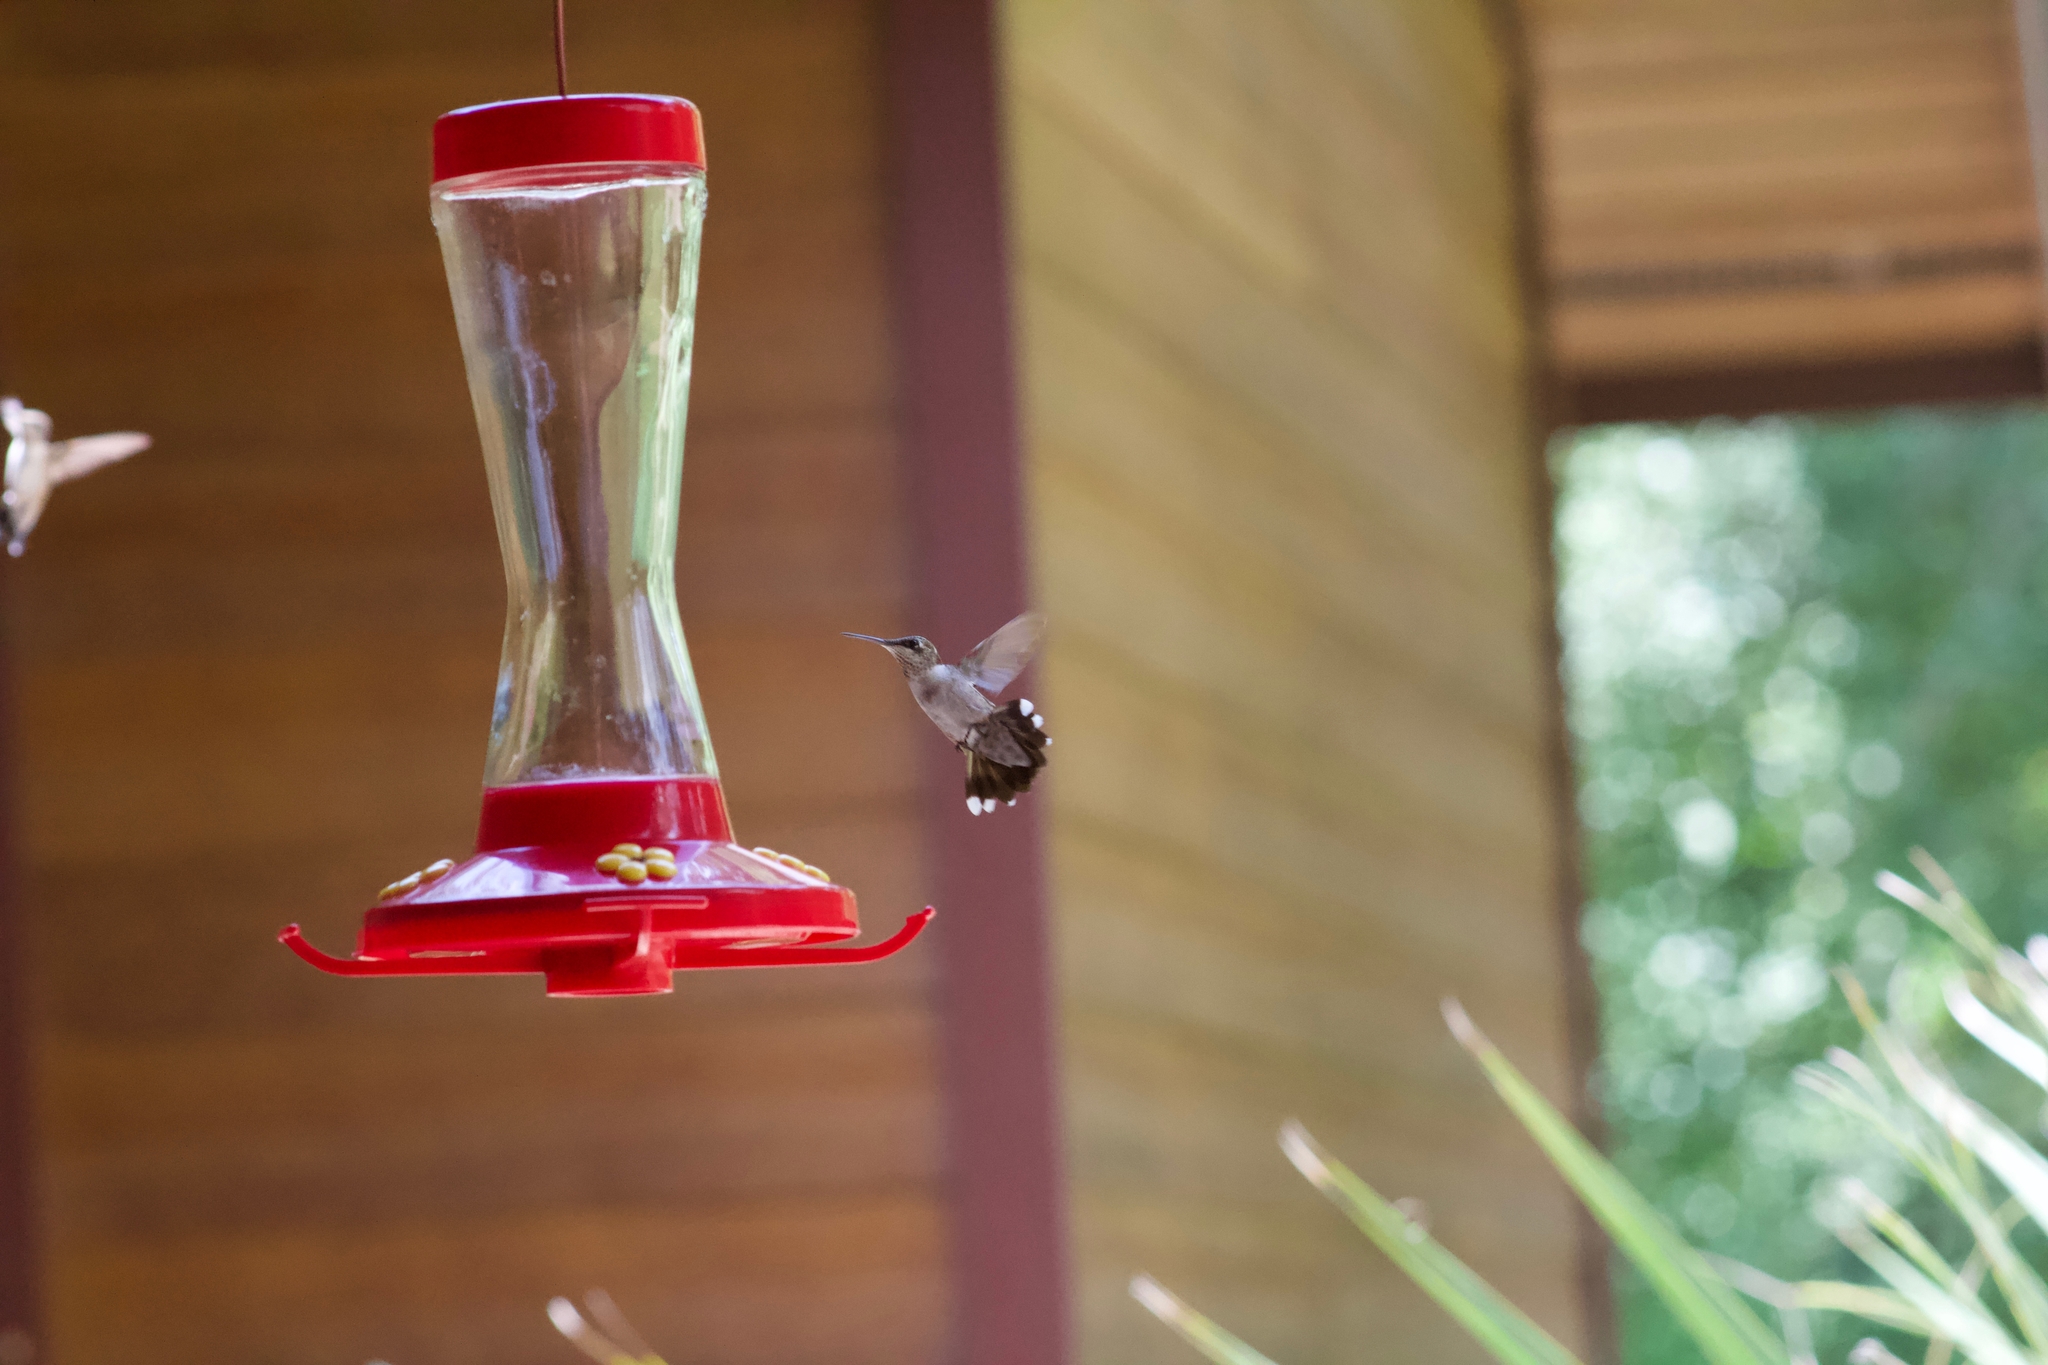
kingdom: Animalia
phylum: Chordata
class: Aves
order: Apodiformes
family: Trochilidae
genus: Archilochus
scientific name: Archilochus colubris
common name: Ruby-throated hummingbird
